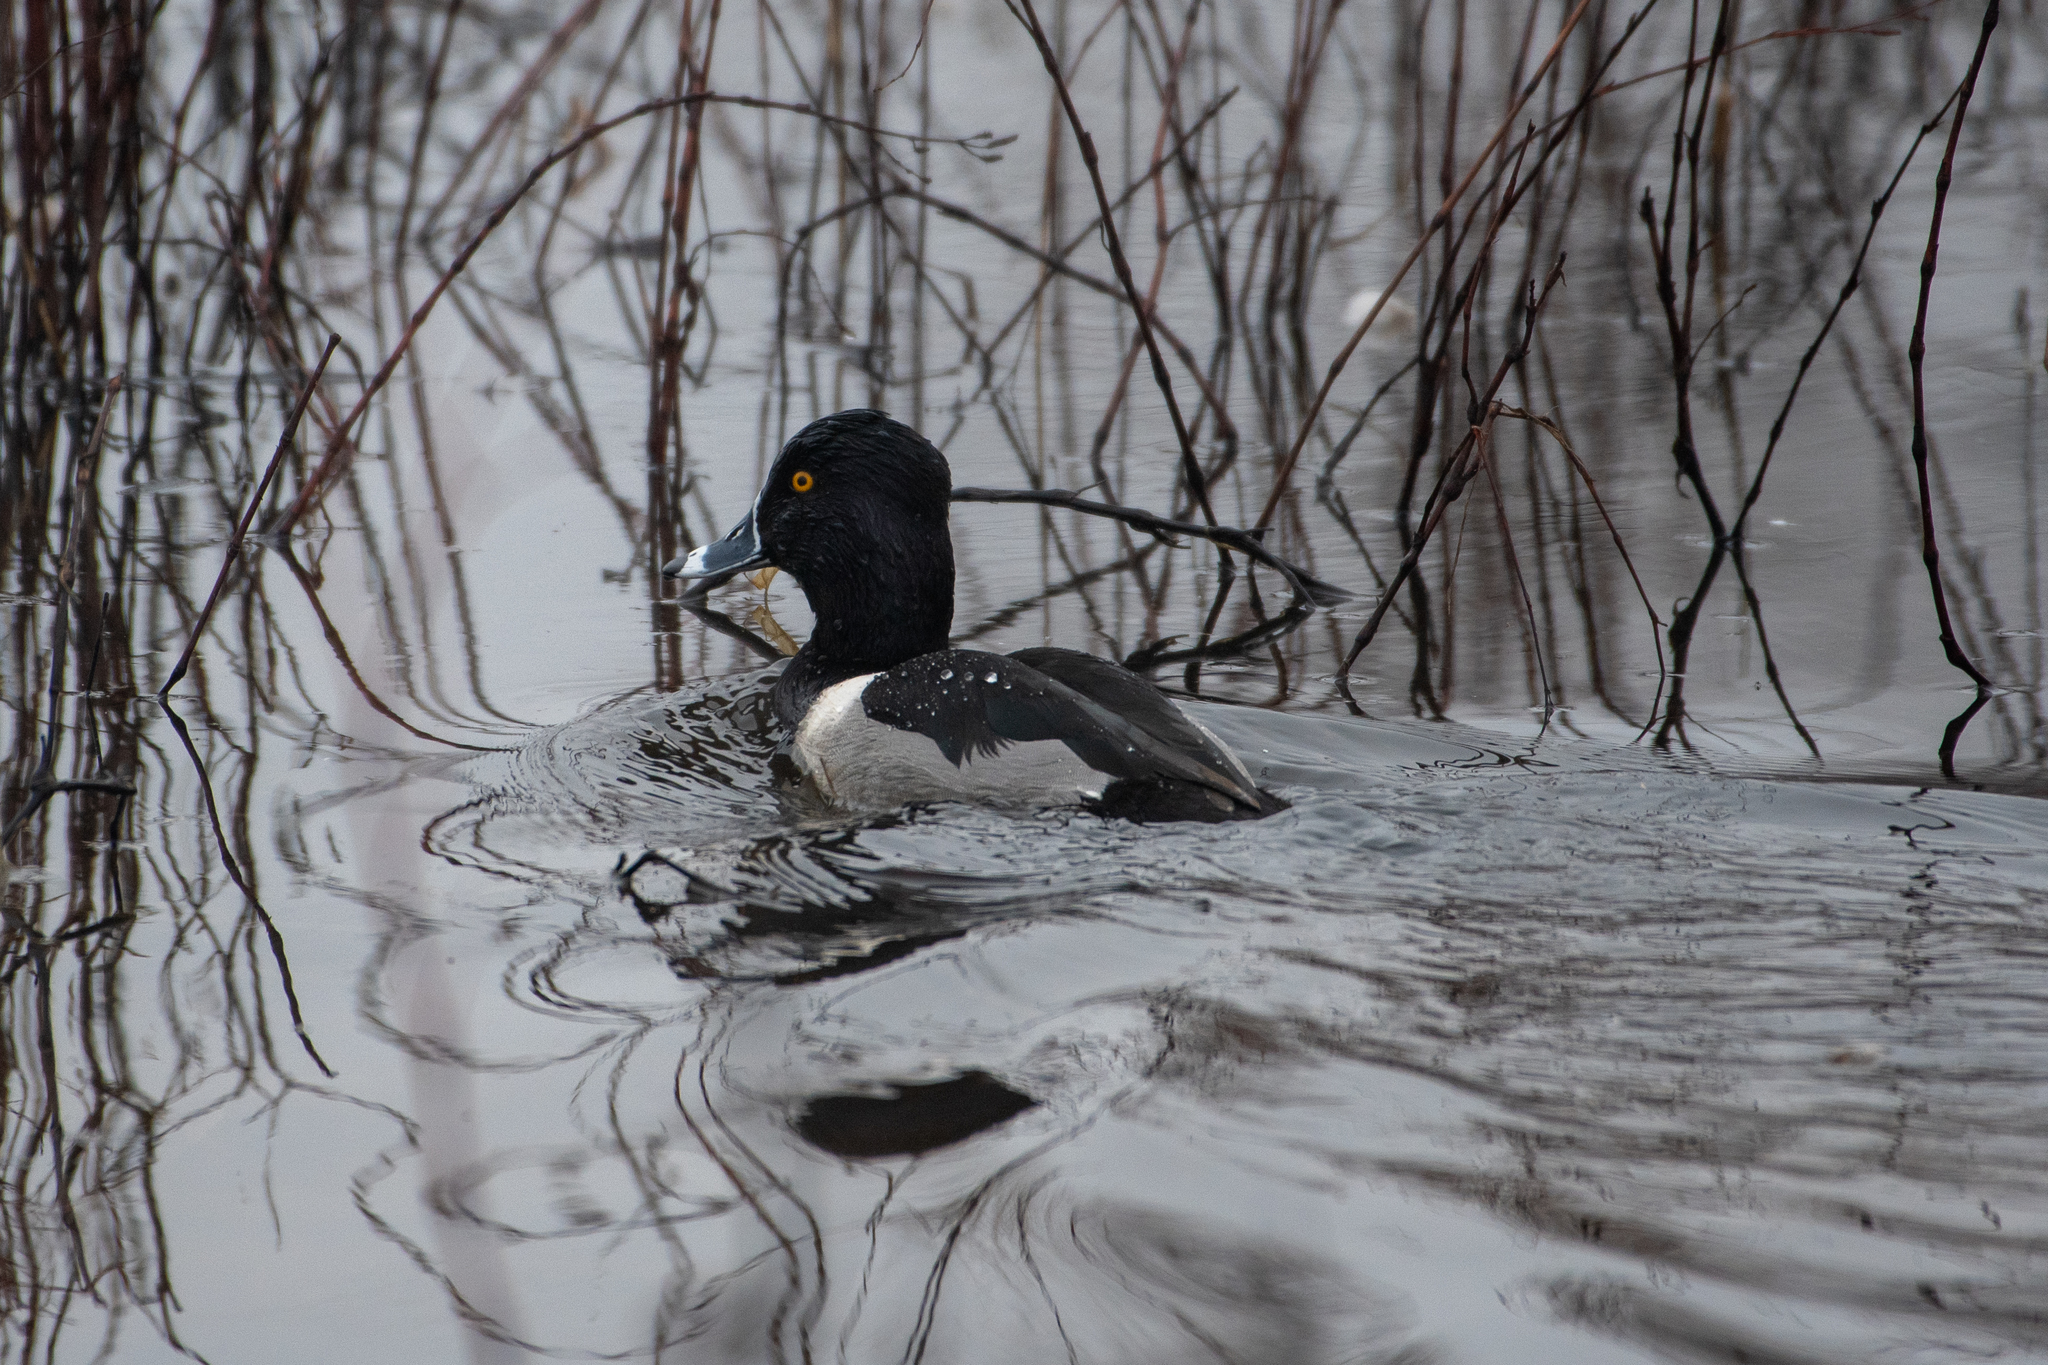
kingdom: Animalia
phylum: Chordata
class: Aves
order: Anseriformes
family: Anatidae
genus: Aythya
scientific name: Aythya collaris
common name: Ring-necked duck
